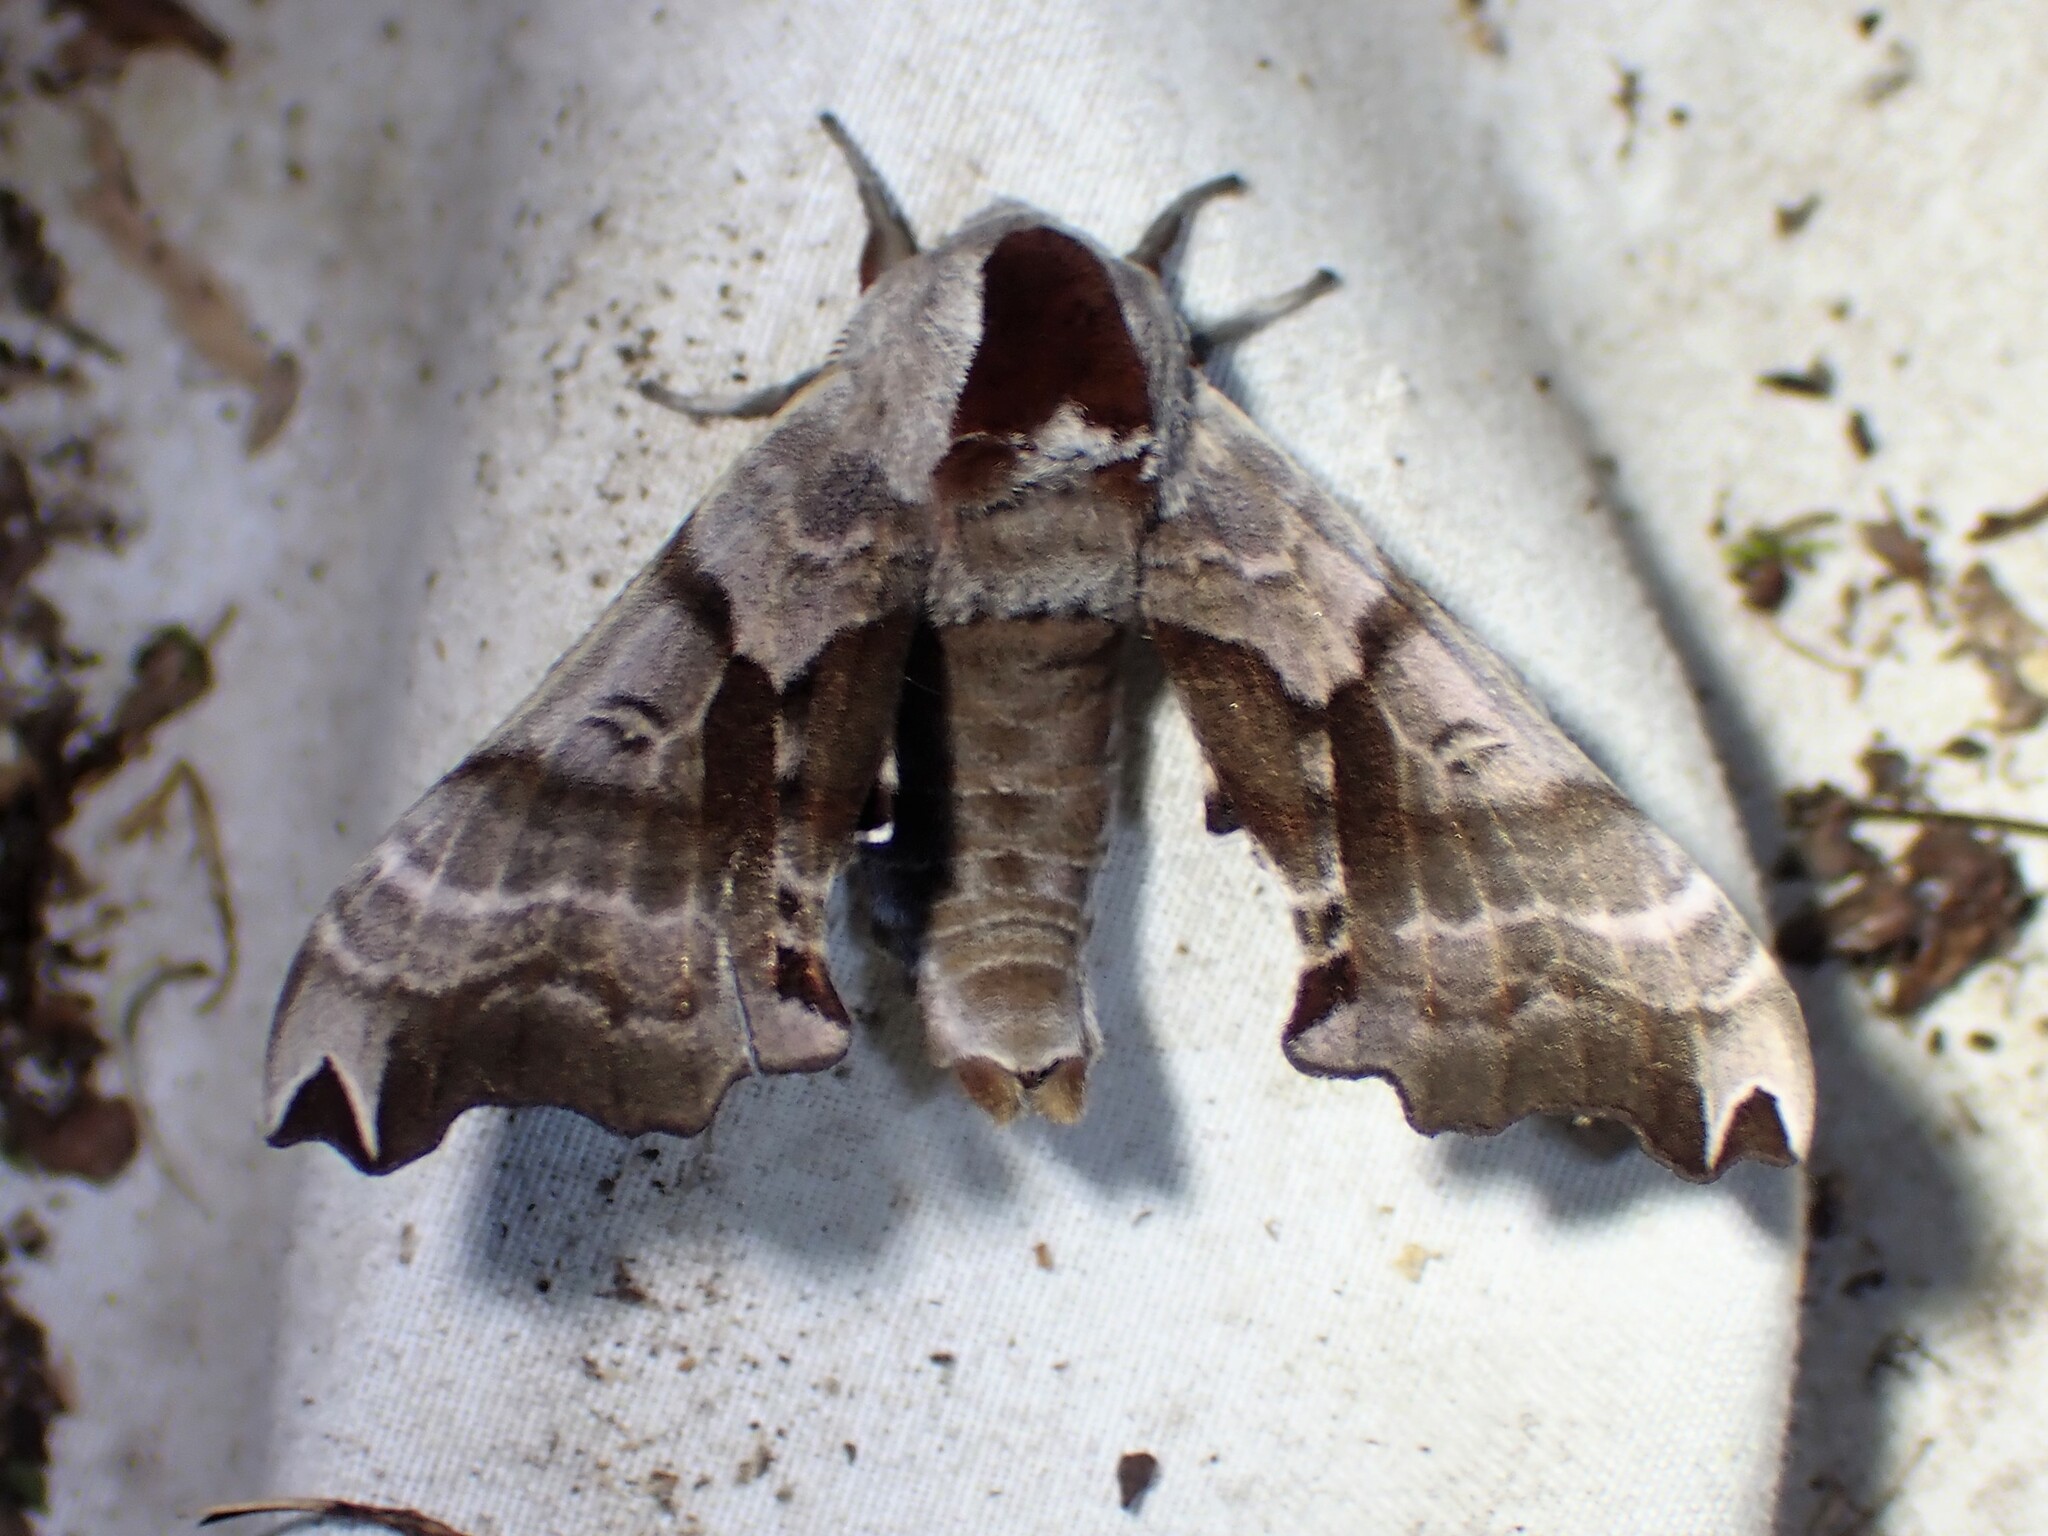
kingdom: Animalia
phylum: Arthropoda
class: Insecta
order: Lepidoptera
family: Sphingidae
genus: Smerinthus
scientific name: Smerinthus jamaicensis
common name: Twin spotted sphinx
